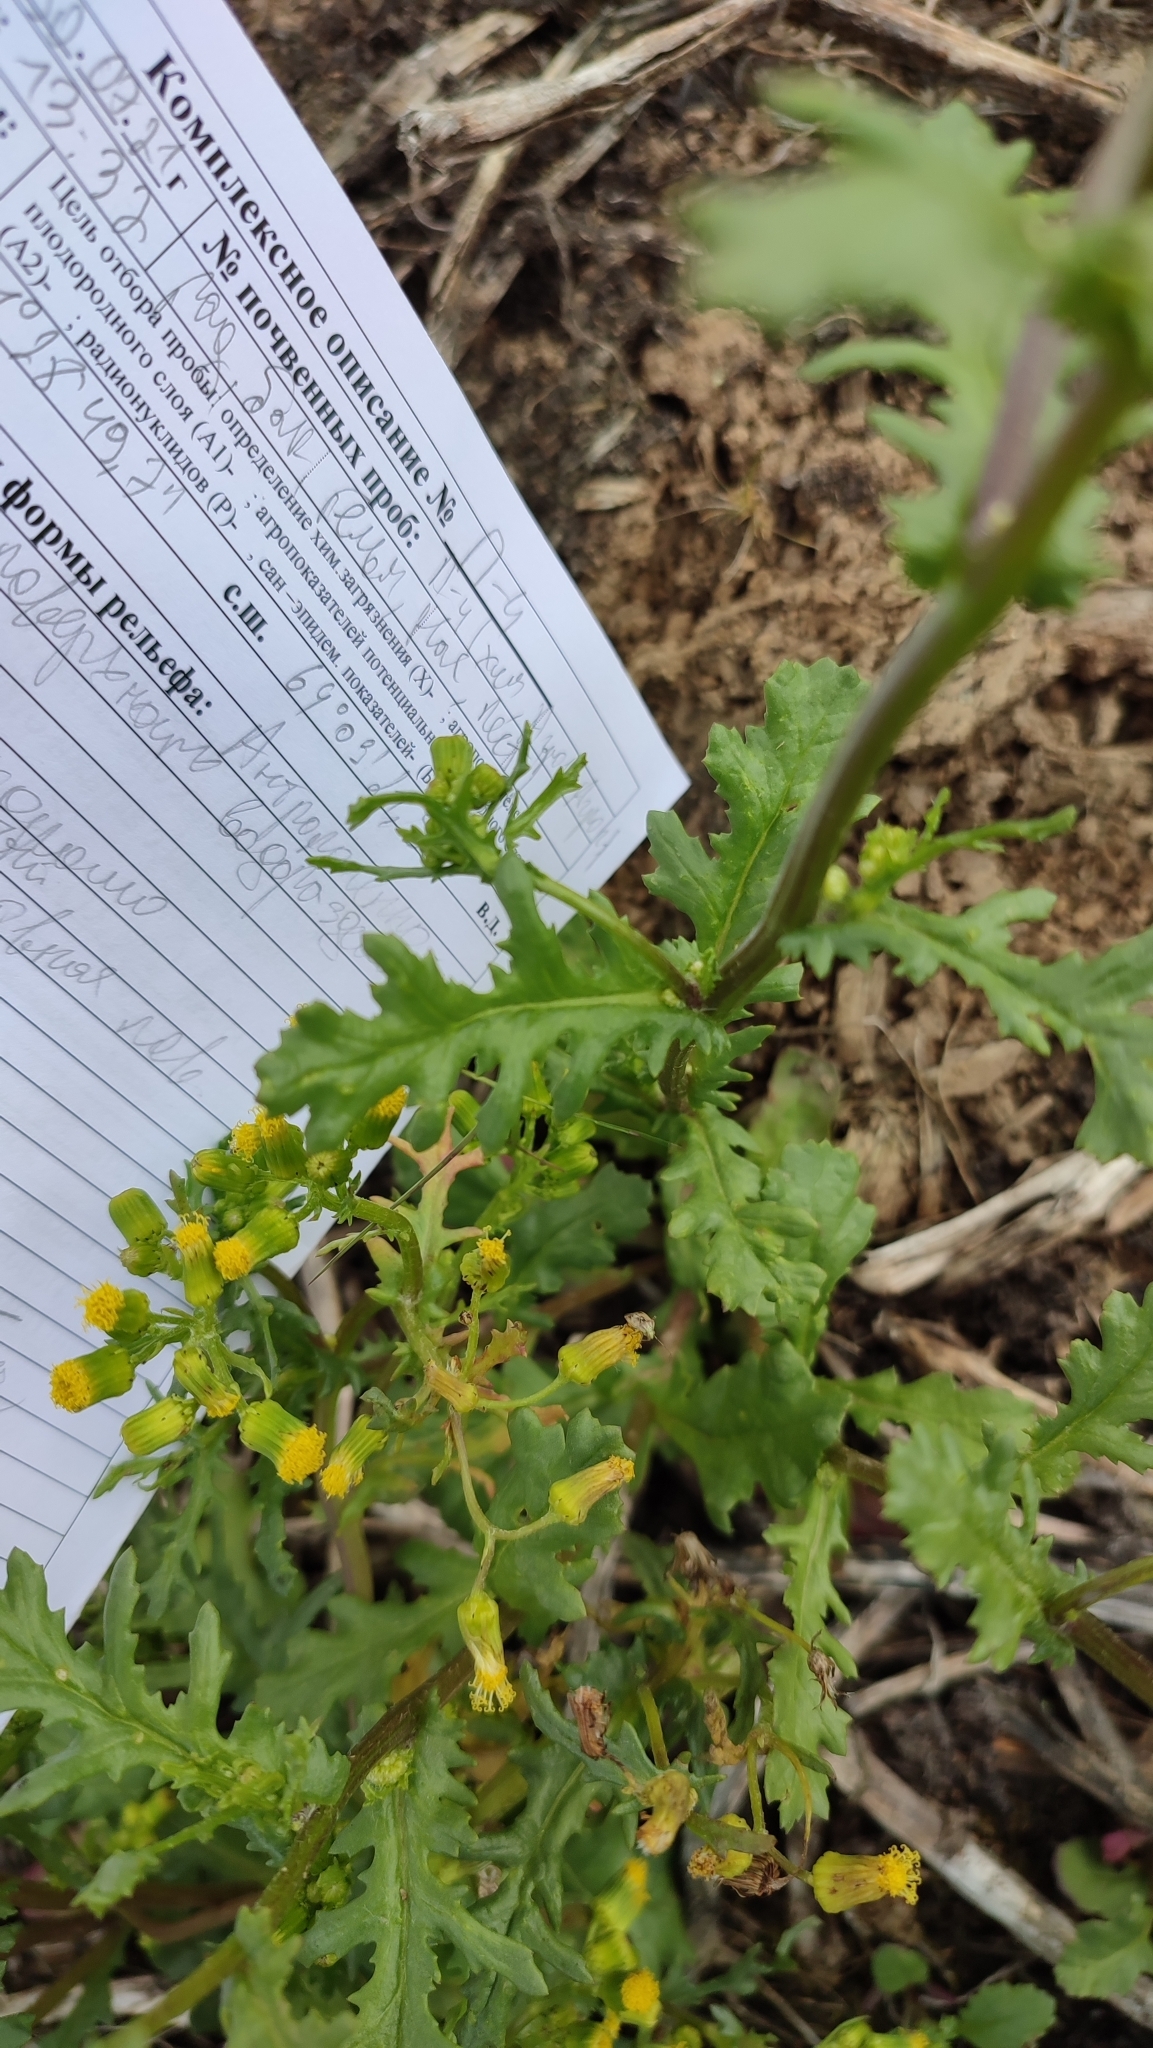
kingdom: Plantae
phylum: Tracheophyta
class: Magnoliopsida
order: Asterales
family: Asteraceae
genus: Senecio
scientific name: Senecio vulgaris
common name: Old-man-in-the-spring
